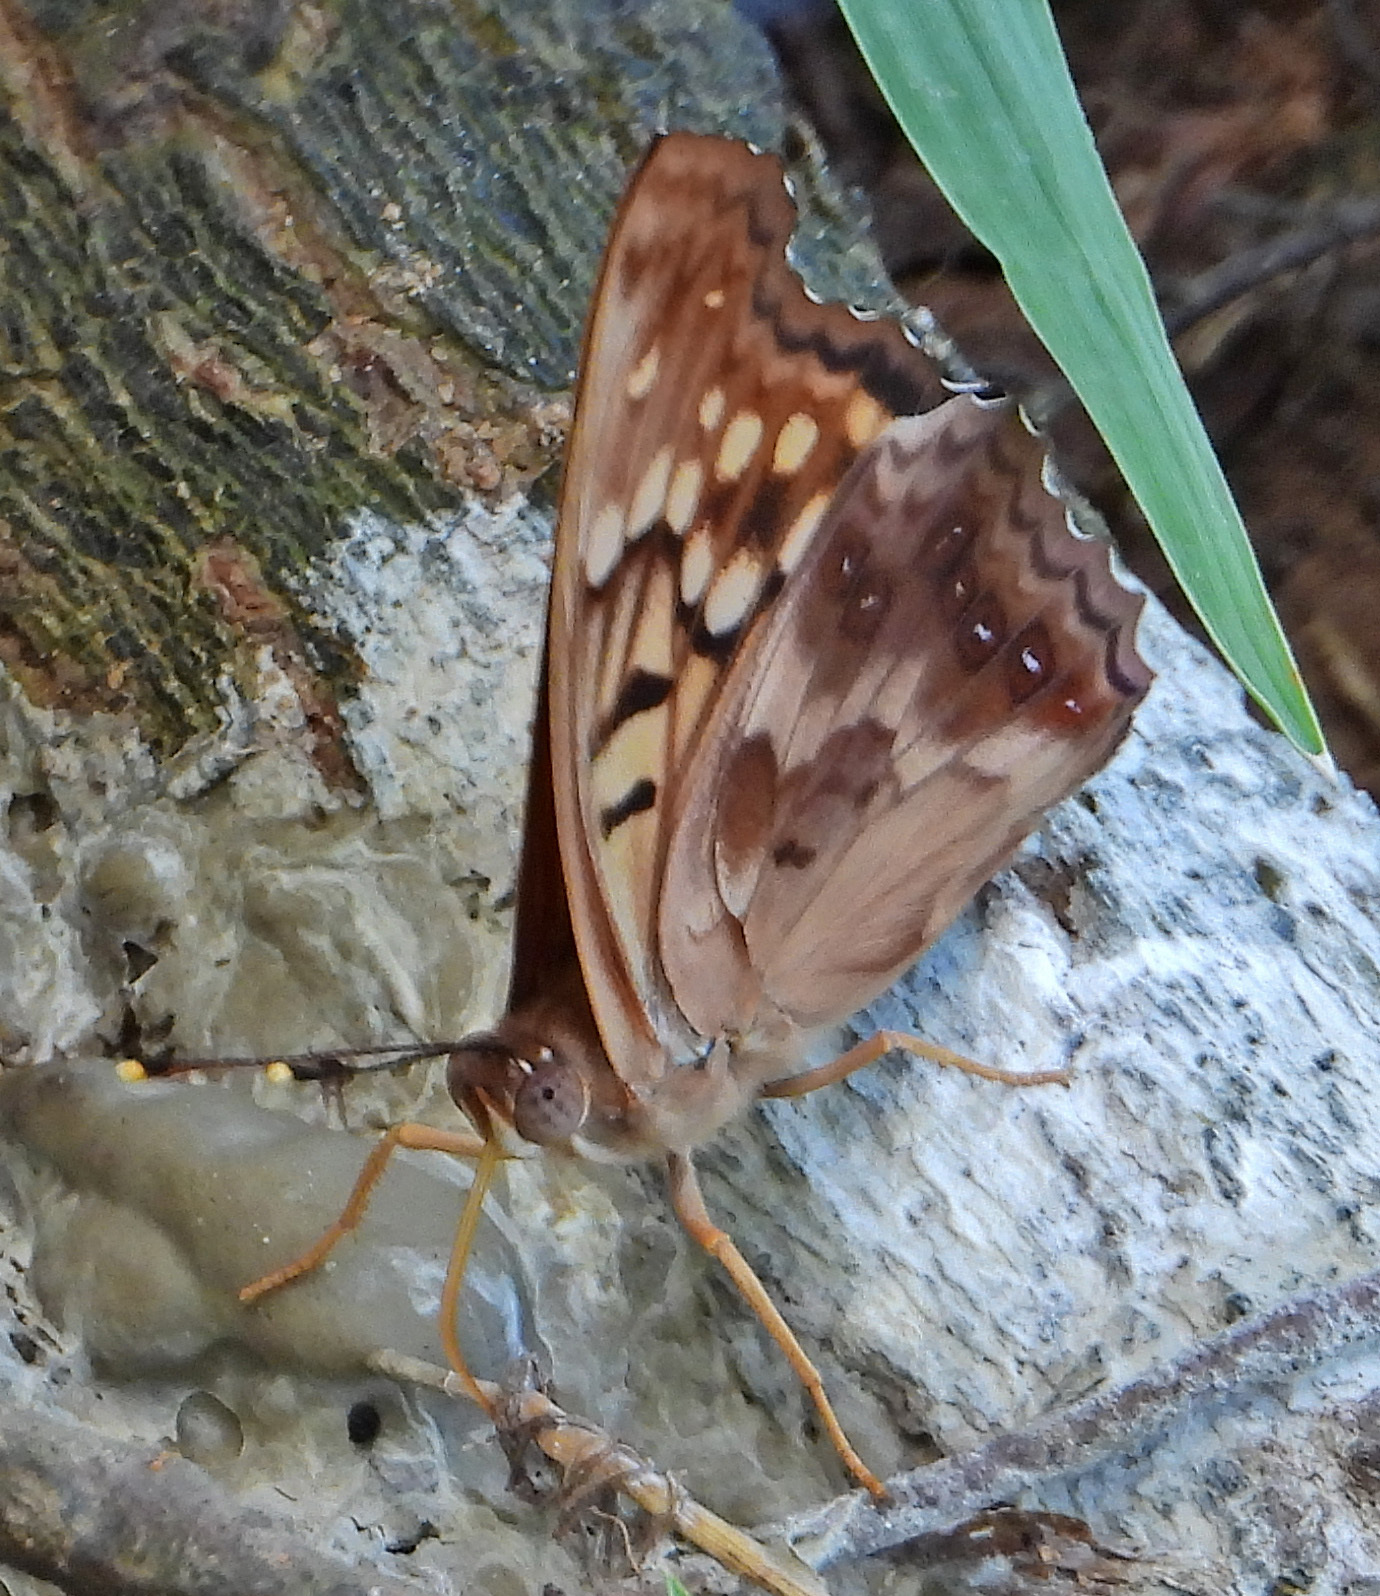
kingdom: Animalia
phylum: Arthropoda
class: Insecta
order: Lepidoptera
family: Nymphalidae
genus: Asterocampa
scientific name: Asterocampa clyton
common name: Tawny emperor
